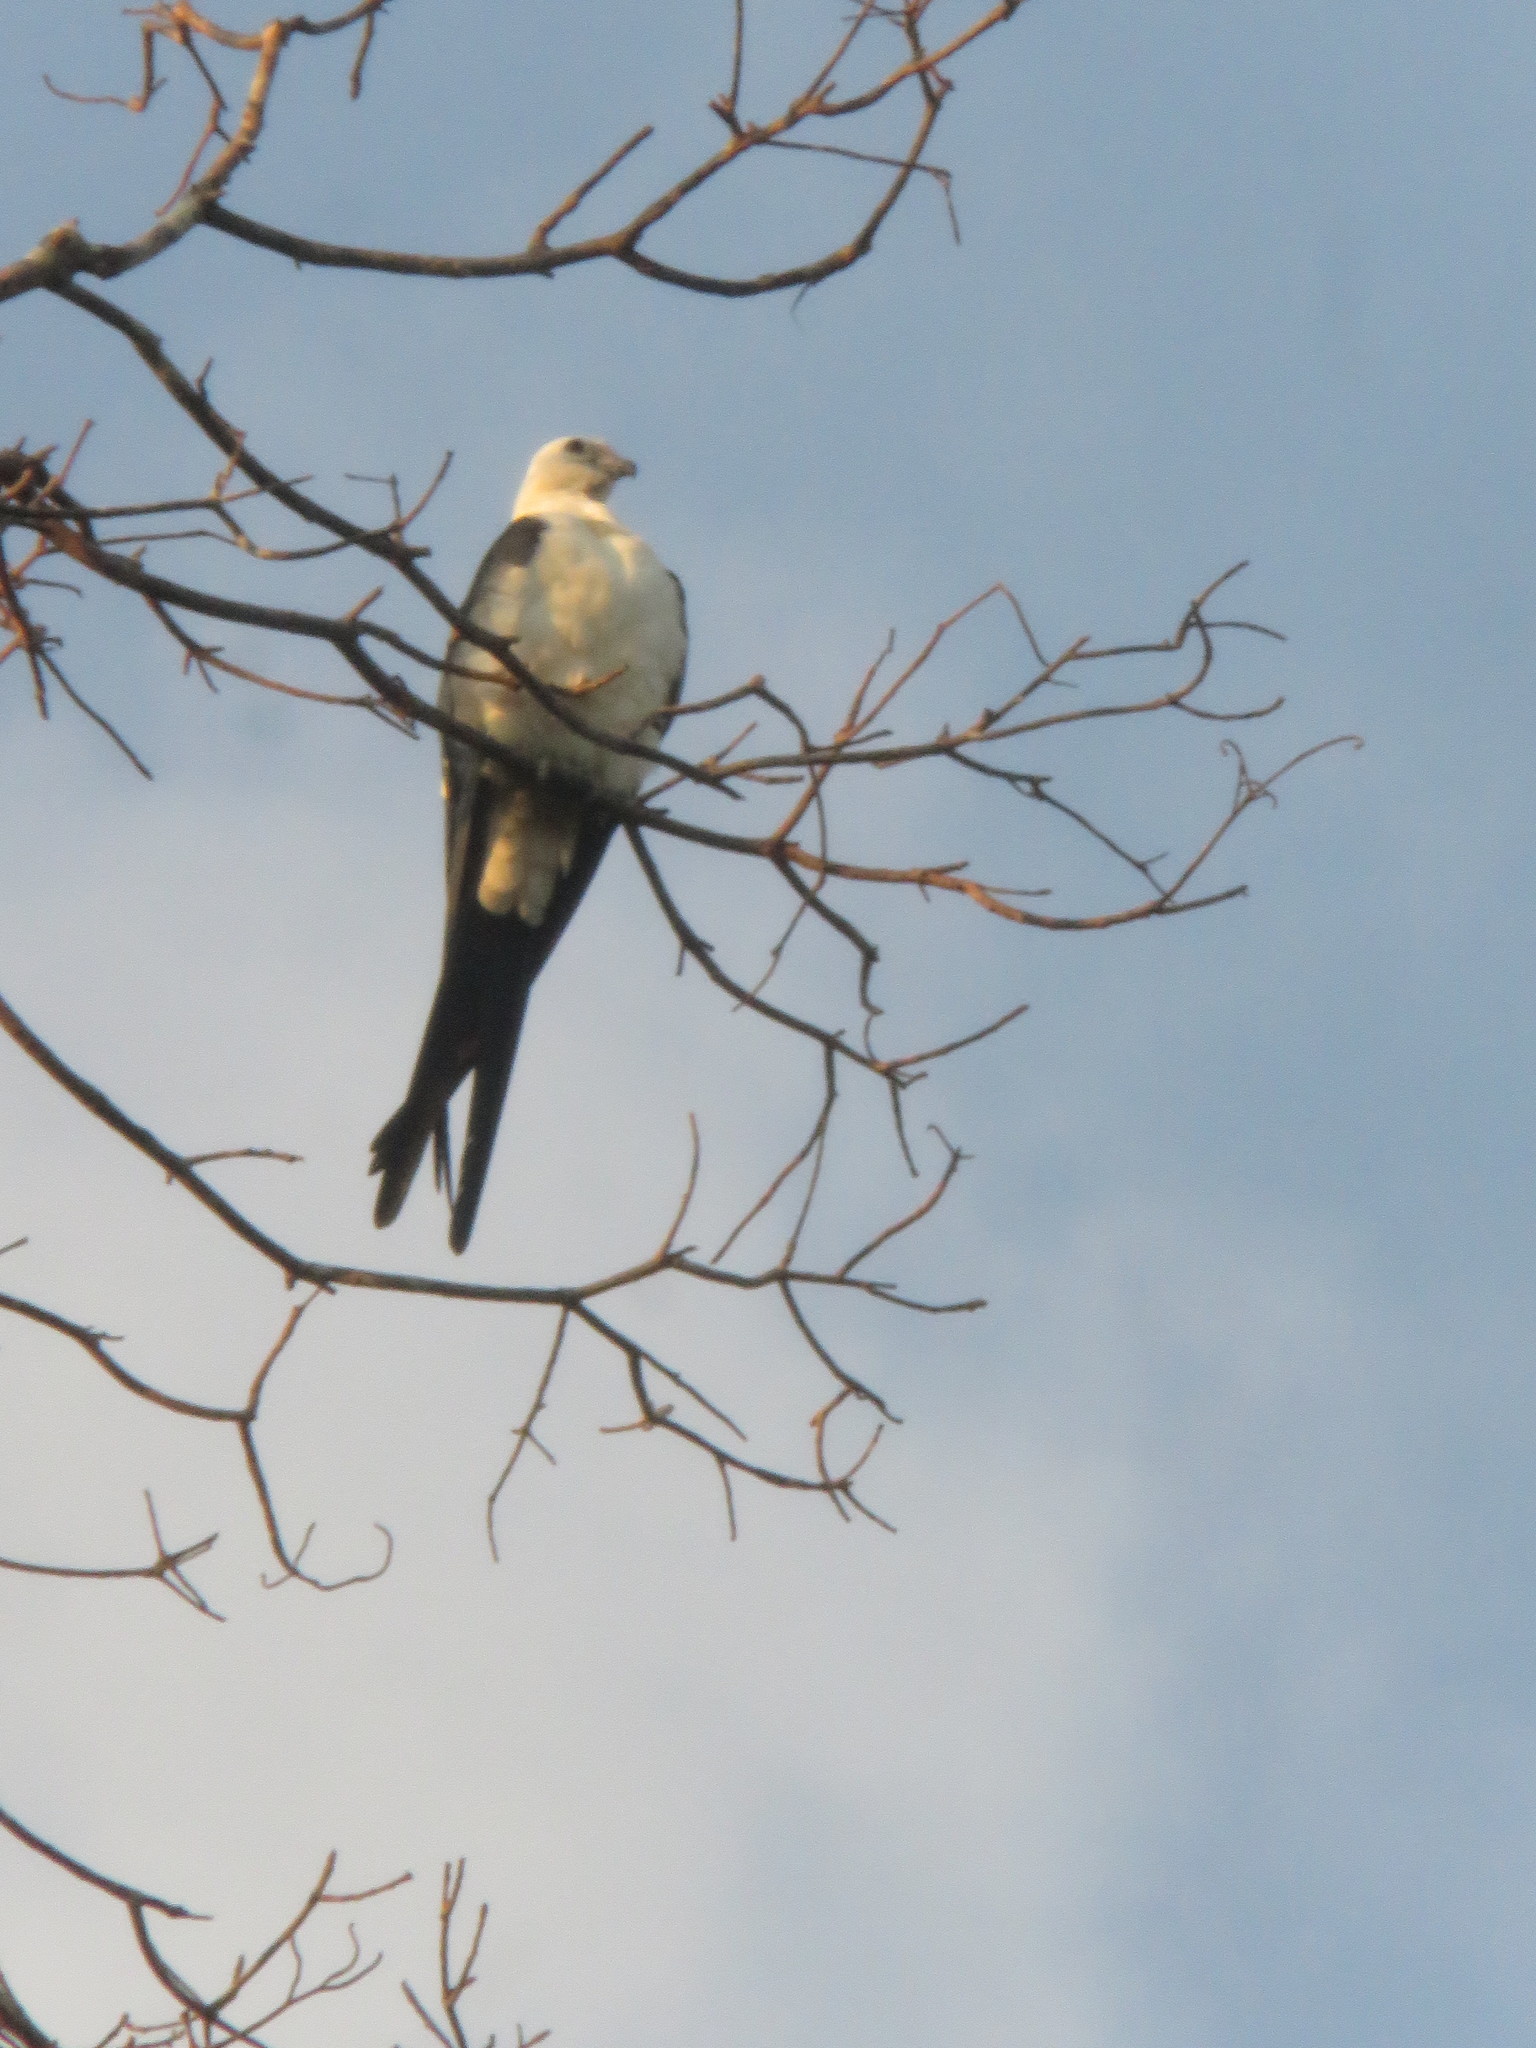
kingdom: Animalia
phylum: Chordata
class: Aves
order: Accipitriformes
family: Accipitridae
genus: Elanoides
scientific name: Elanoides forficatus
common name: Swallow-tailed kite
